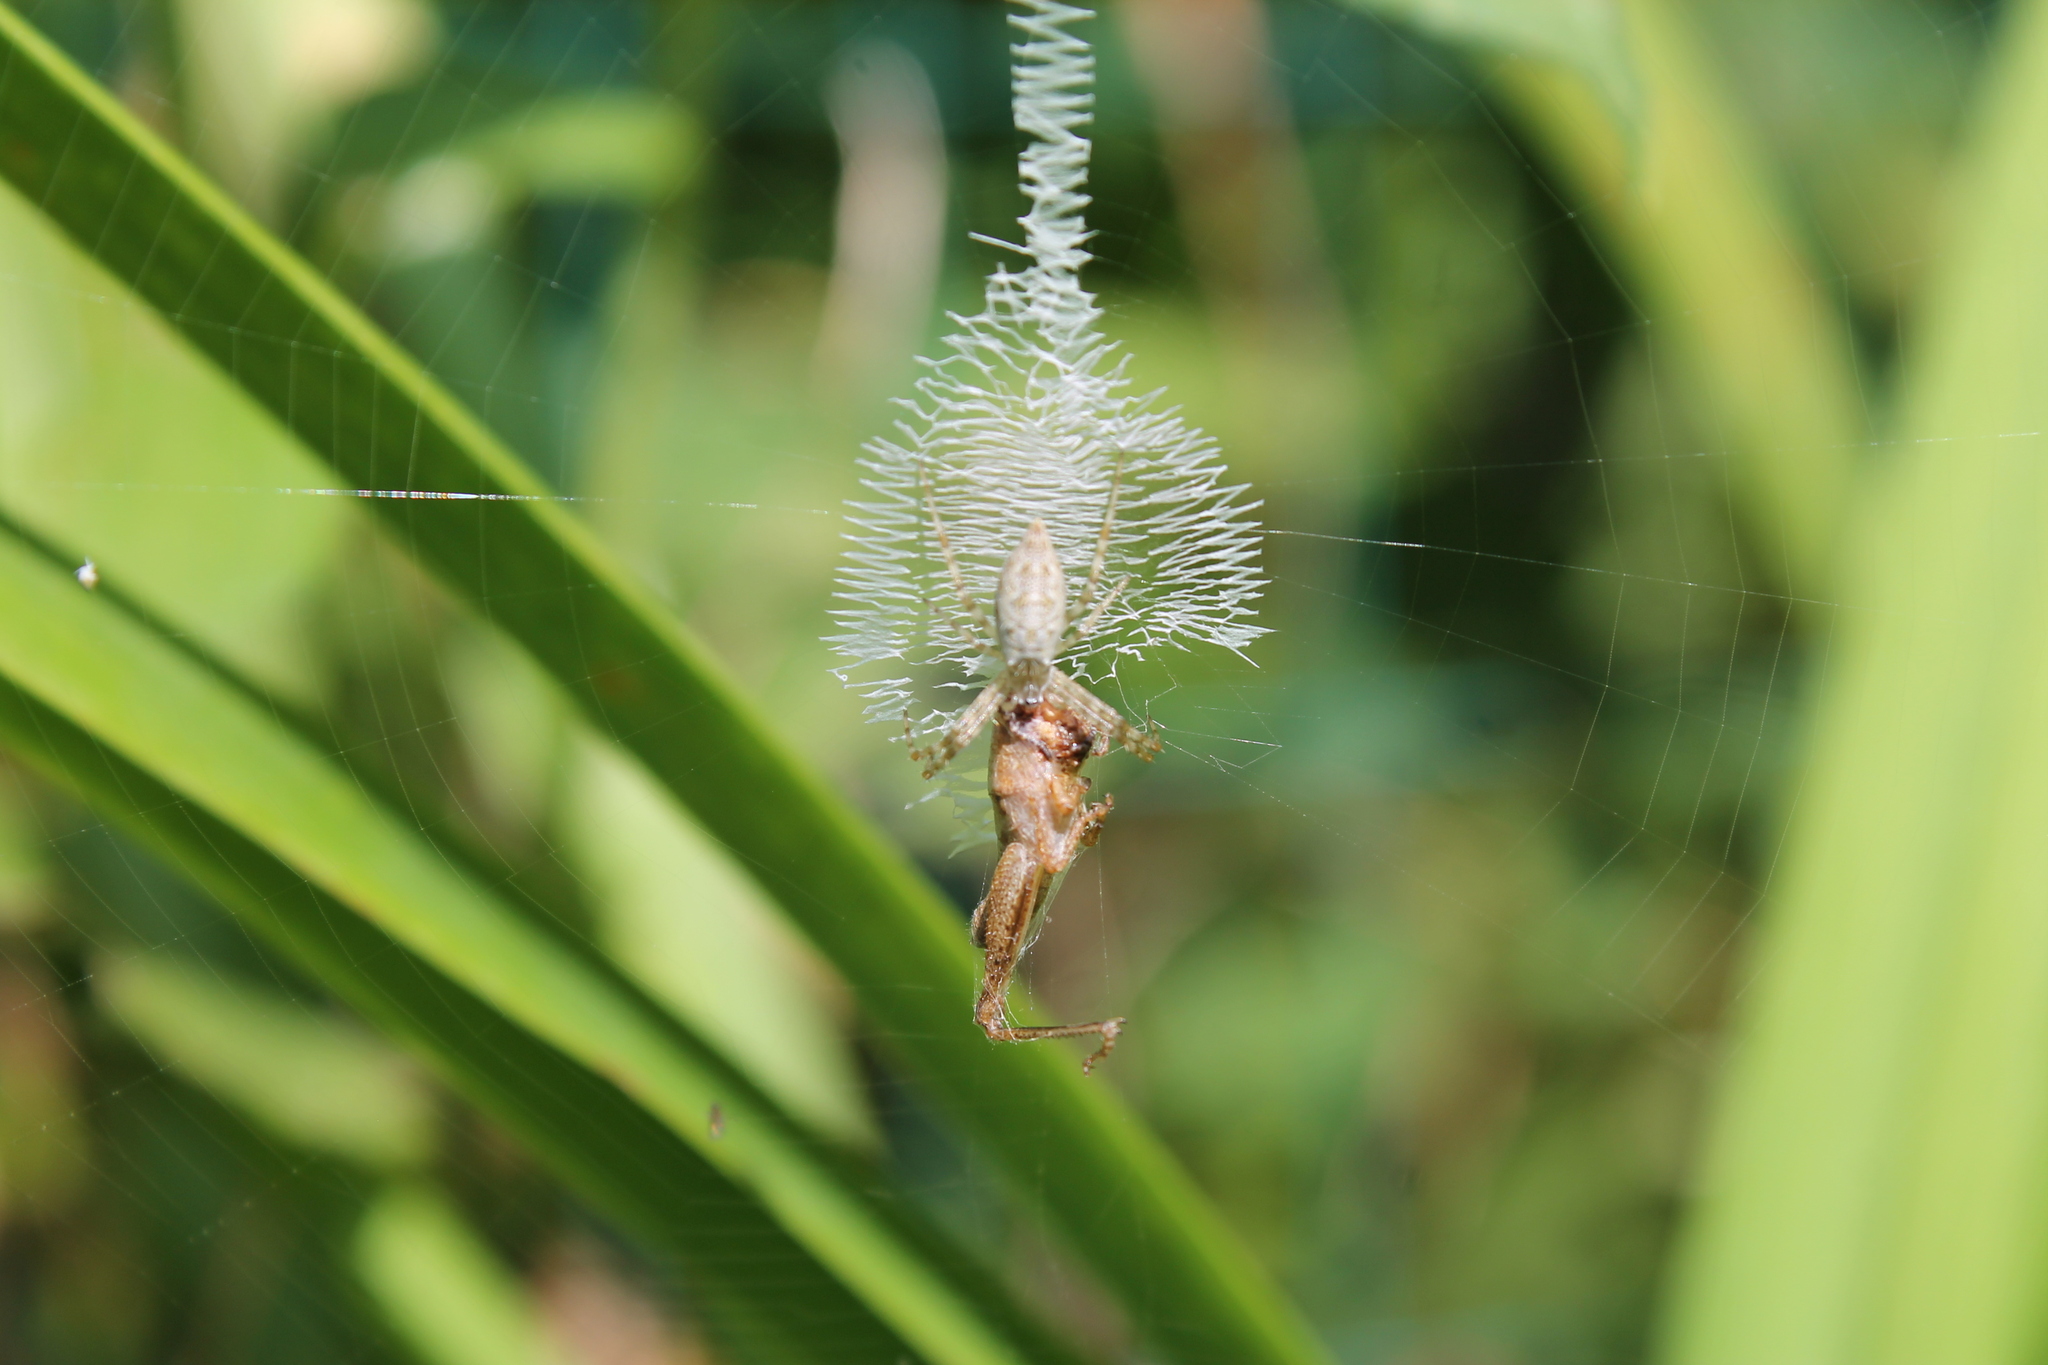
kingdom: Animalia
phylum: Arthropoda
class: Arachnida
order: Araneae
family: Araneidae
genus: Argiope
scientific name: Argiope aurantia
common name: Orb weavers
